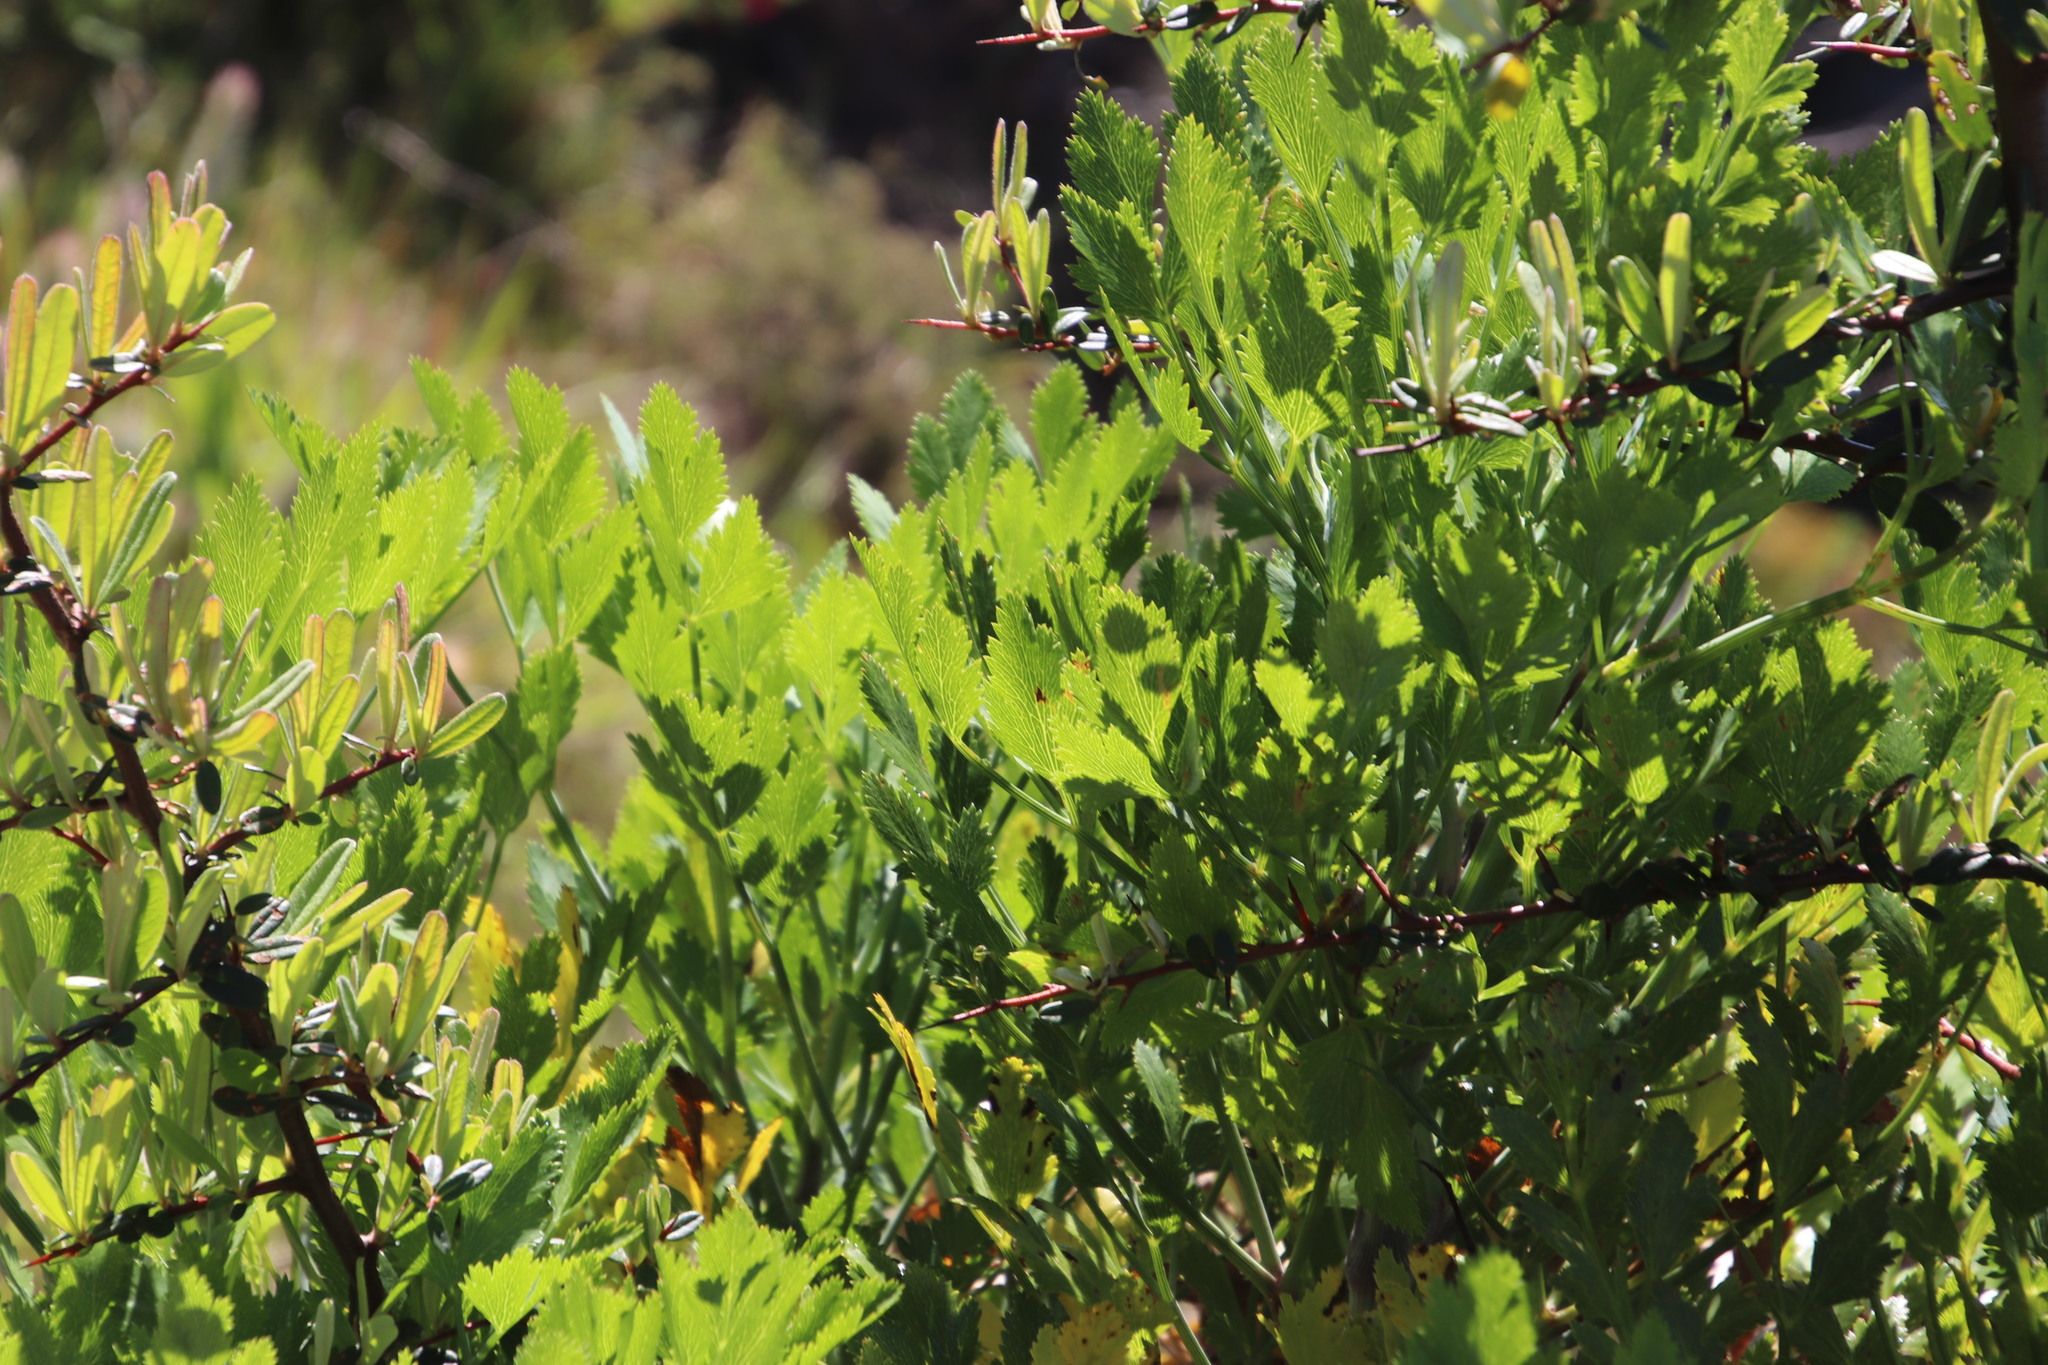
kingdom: Plantae
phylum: Tracheophyta
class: Magnoliopsida
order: Apiales
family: Apiaceae
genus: Notobubon
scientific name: Notobubon galbanum
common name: Blisterbush
